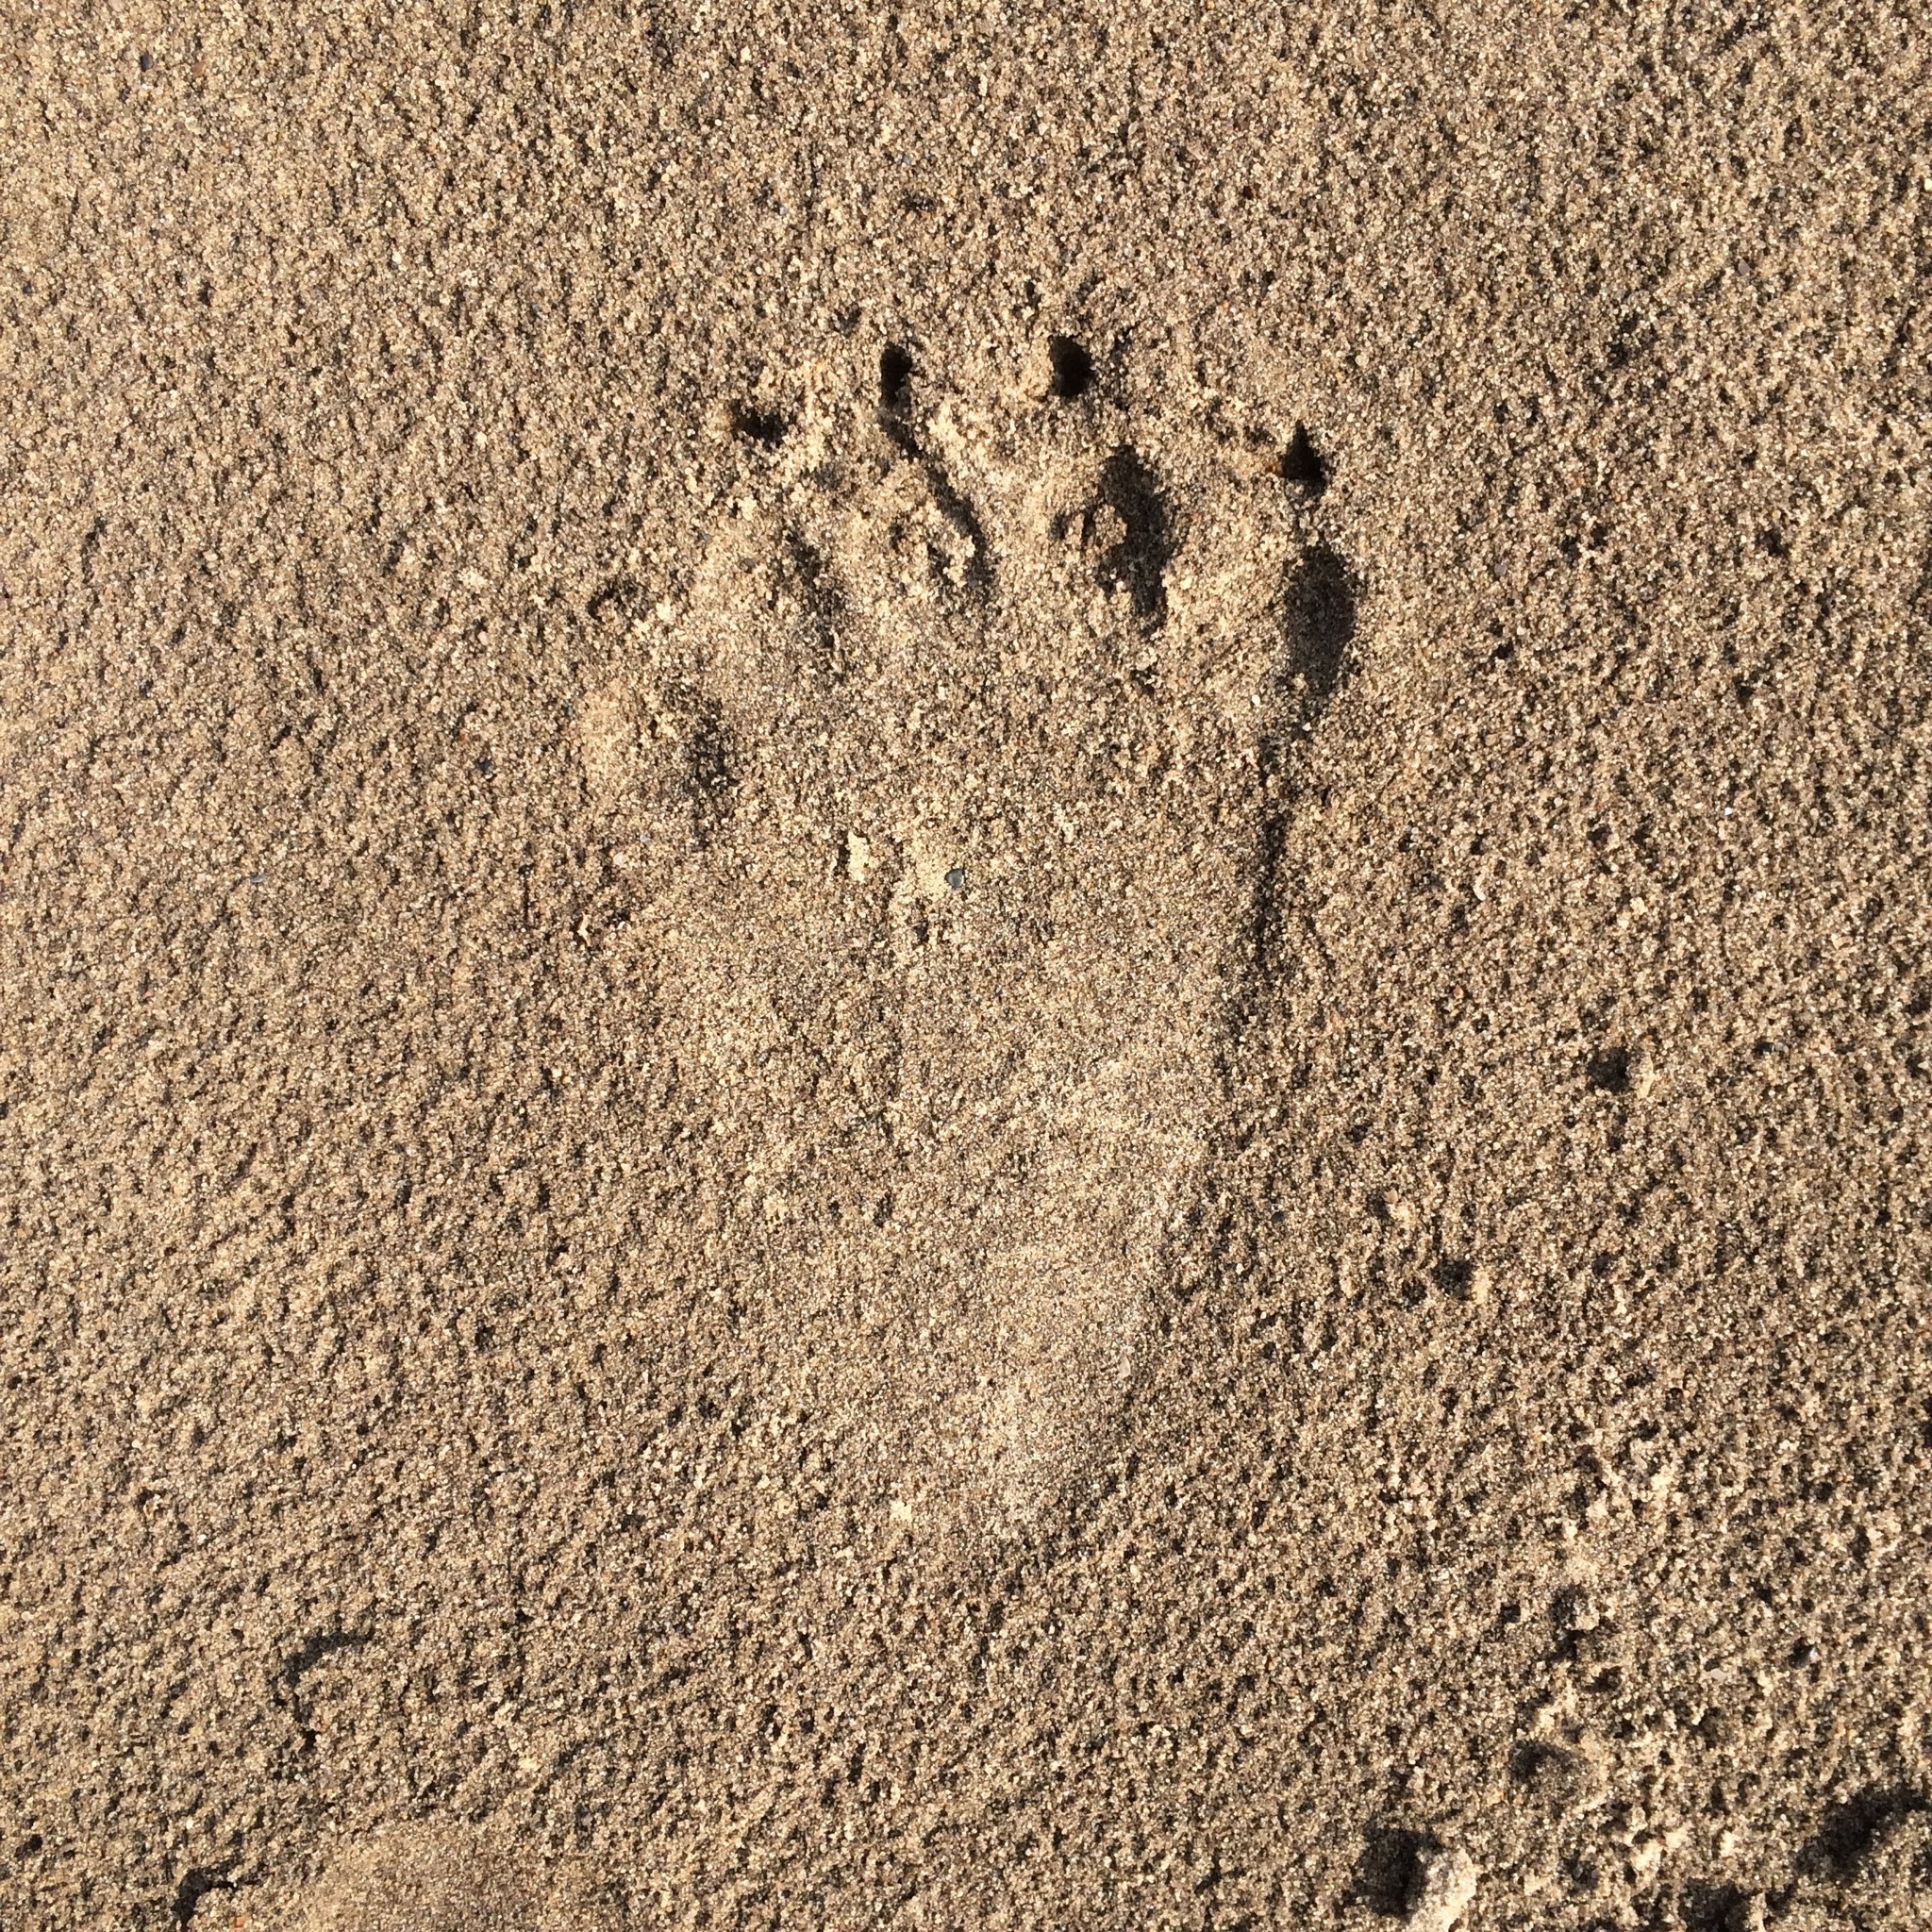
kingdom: Animalia
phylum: Chordata
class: Mammalia
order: Carnivora
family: Ursidae
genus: Ursus
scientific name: Ursus arctos
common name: Brown bear
